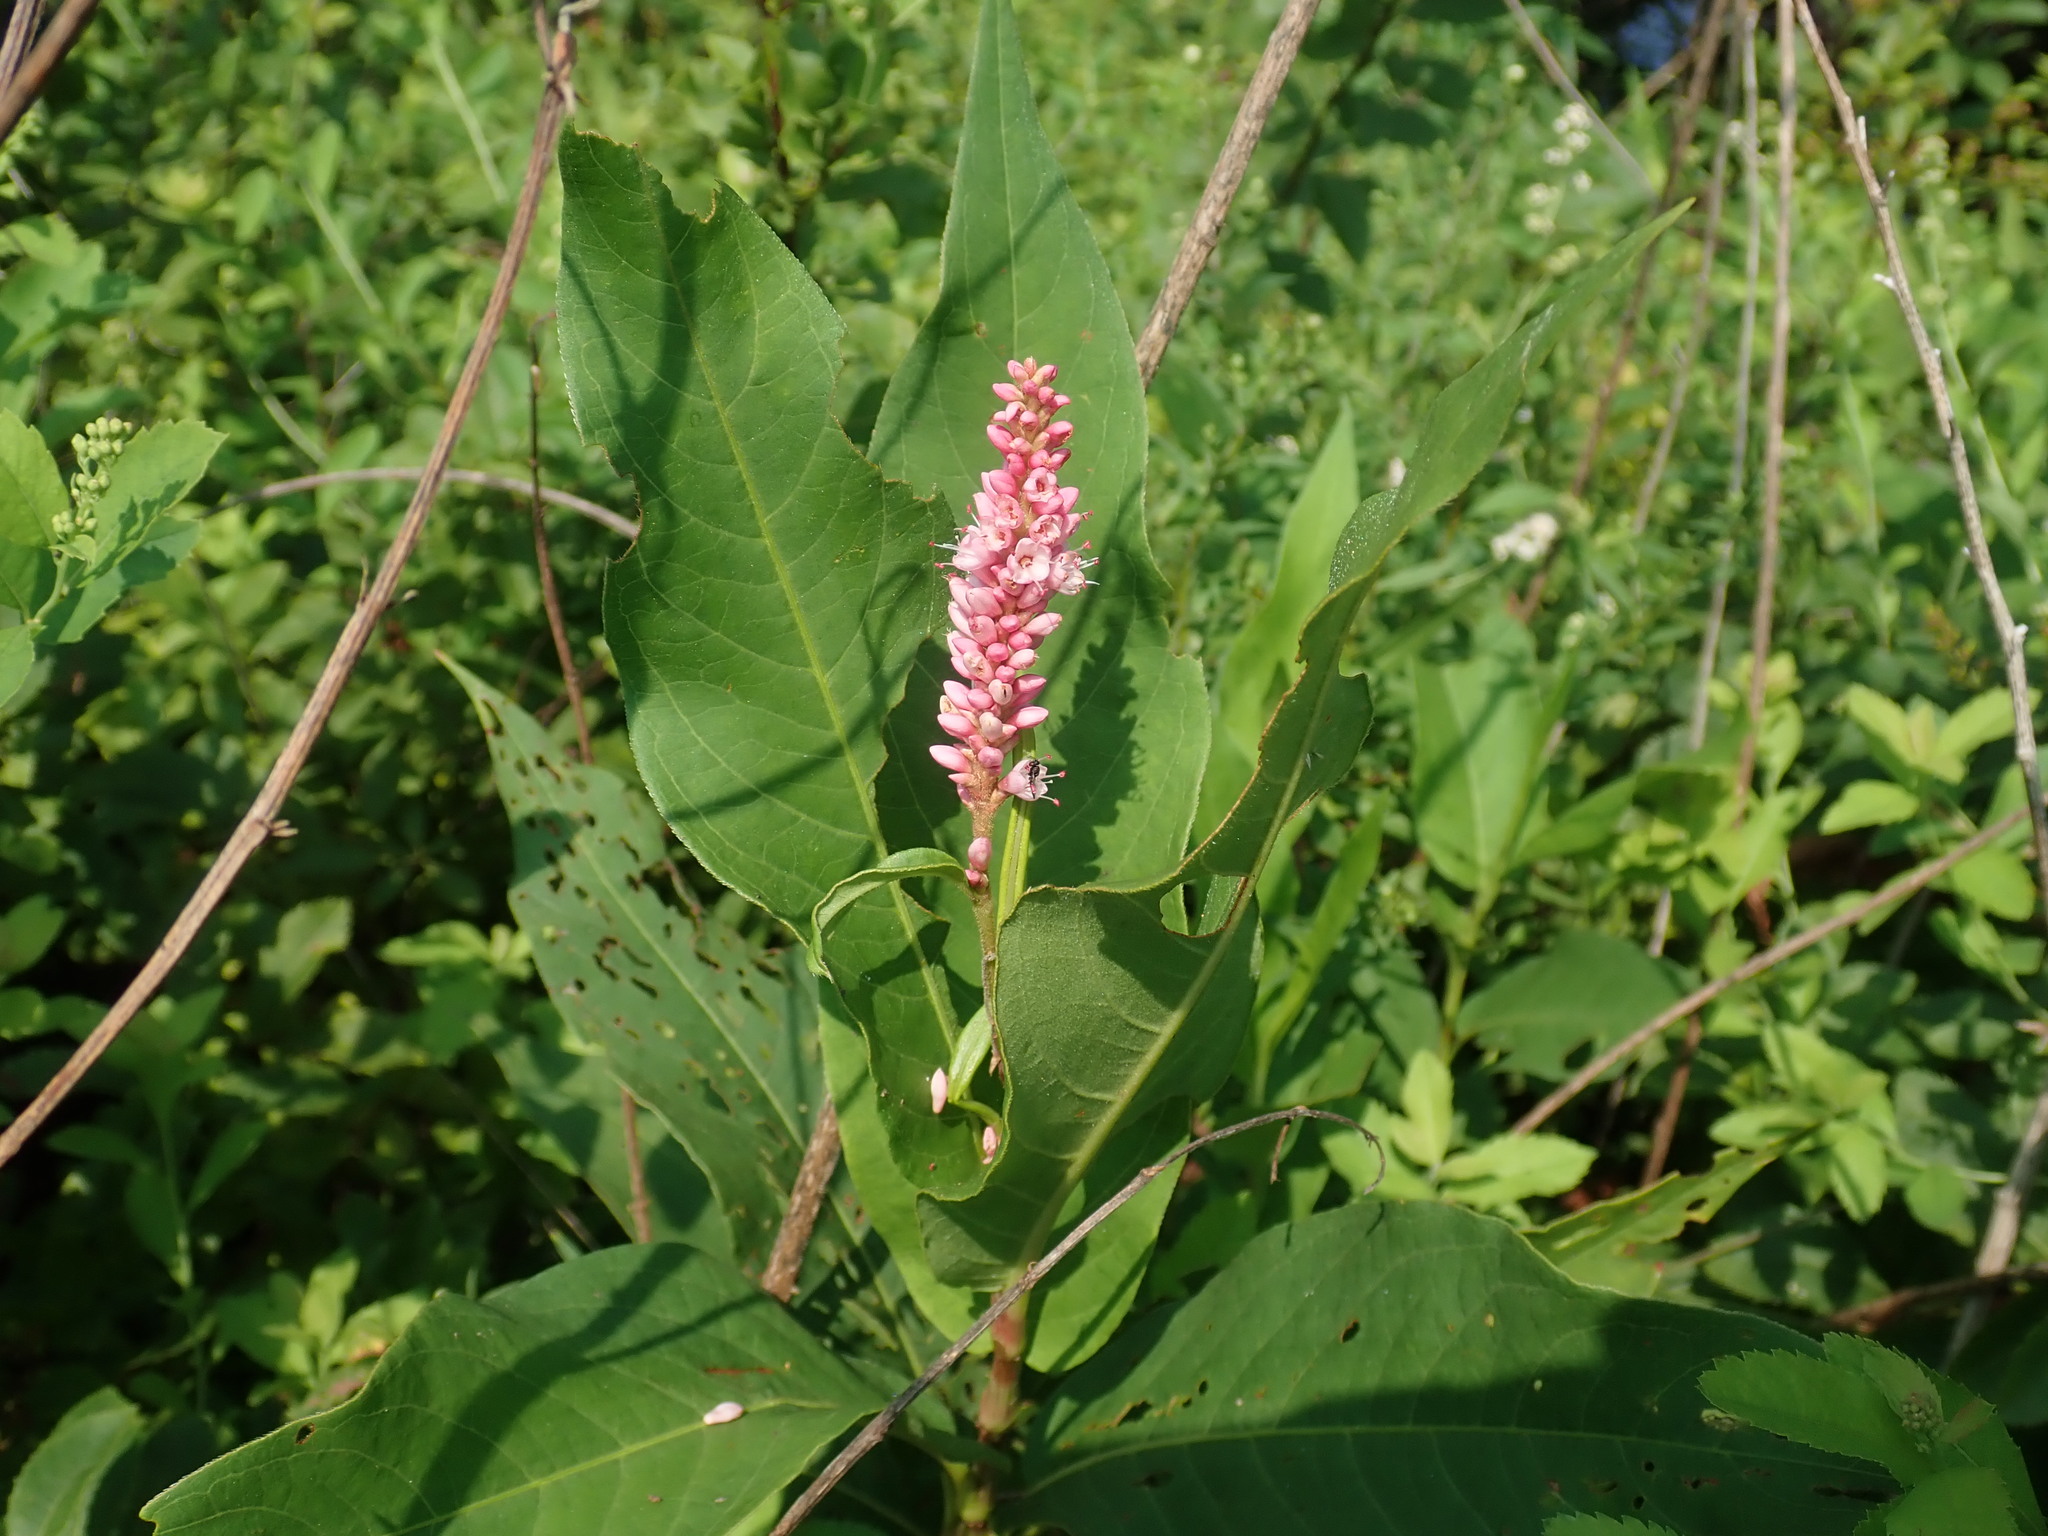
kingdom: Plantae
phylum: Tracheophyta
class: Magnoliopsida
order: Caryophyllales
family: Polygonaceae
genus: Persicaria
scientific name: Persicaria amphibia
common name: Amphibious bistort
